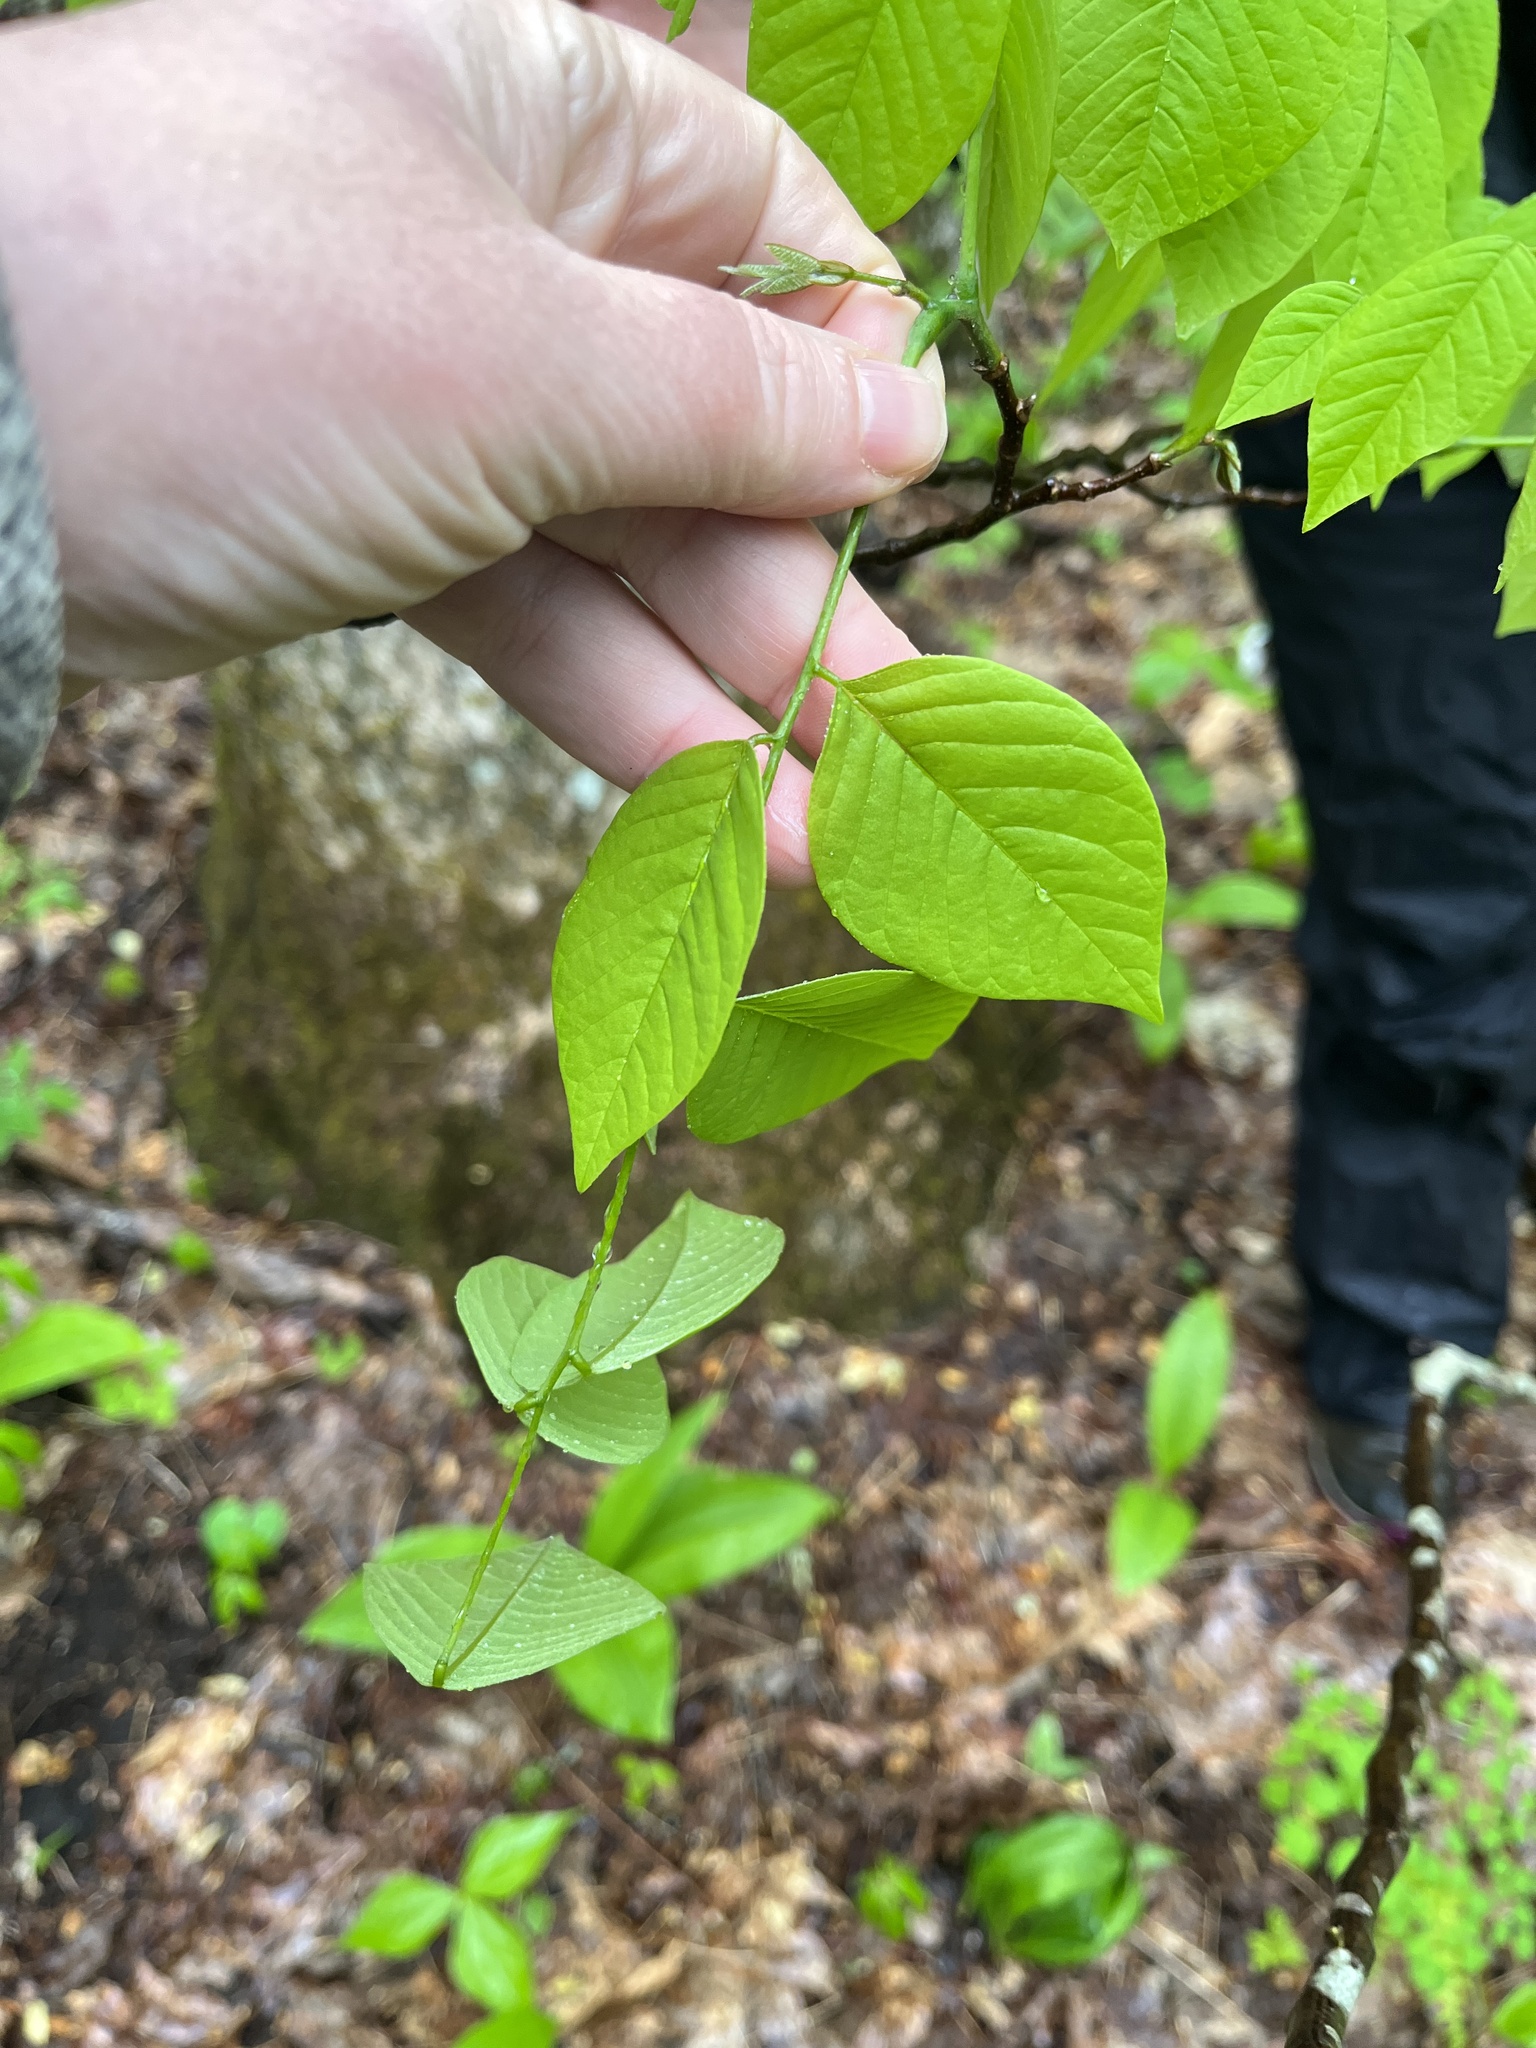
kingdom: Plantae
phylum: Tracheophyta
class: Magnoliopsida
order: Fabales
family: Fabaceae
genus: Cladrastis
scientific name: Cladrastis kentukea
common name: Kentucky yellow-wood
